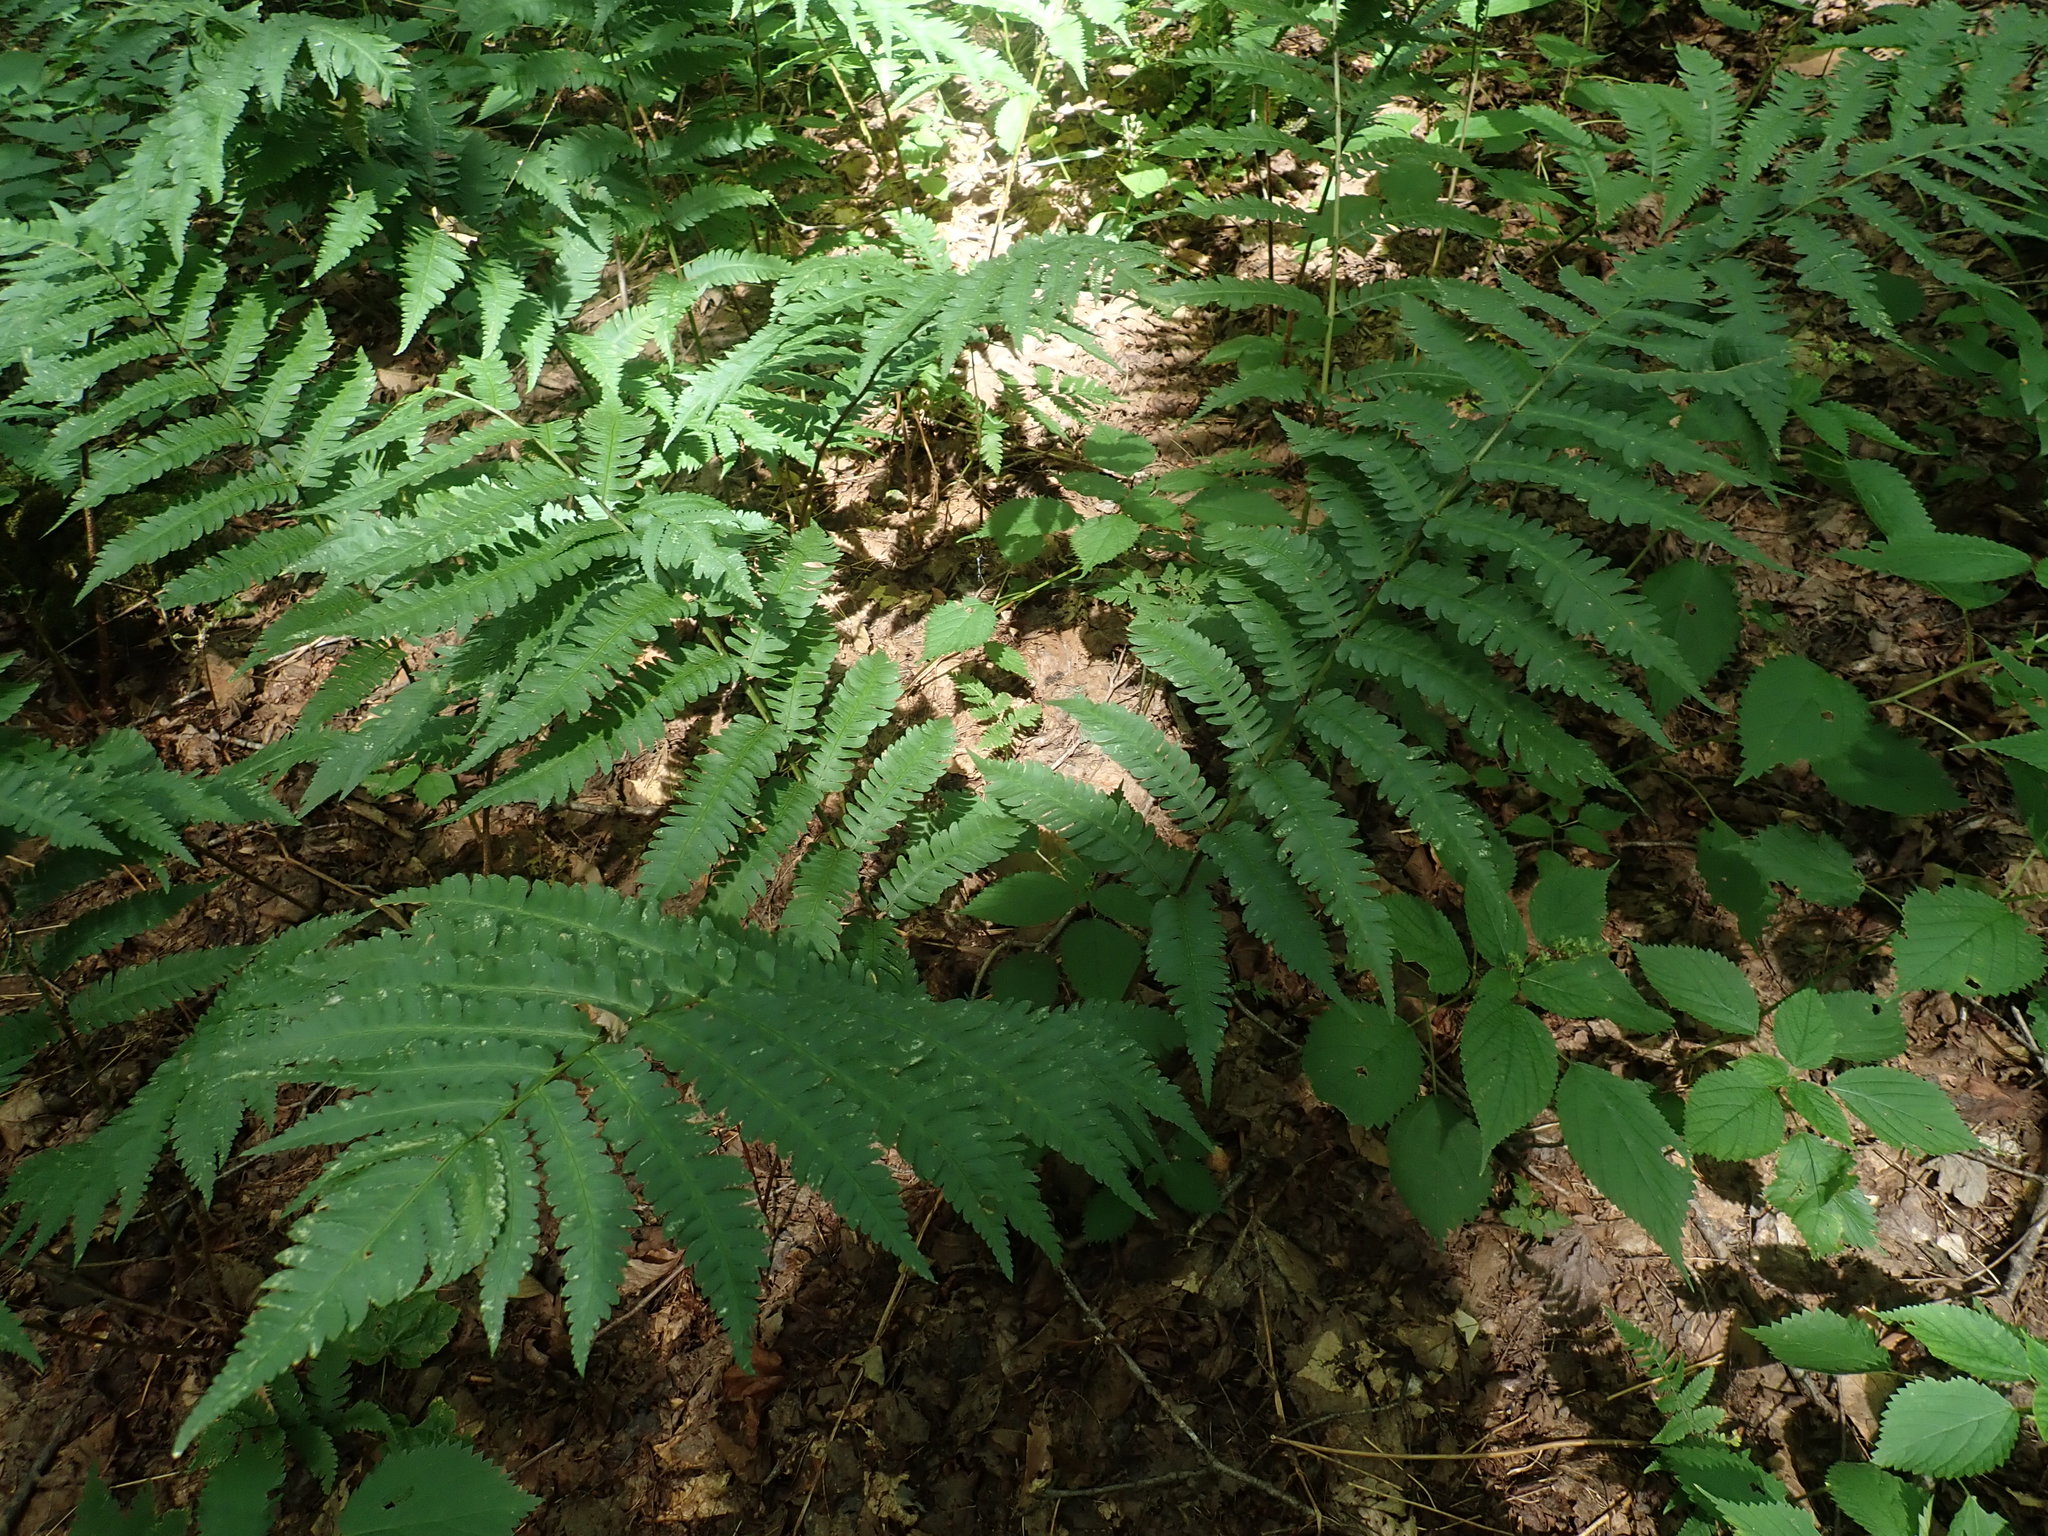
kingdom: Plantae
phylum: Tracheophyta
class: Polypodiopsida
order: Polypodiales
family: Dryopteridaceae
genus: Dryopteris
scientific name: Dryopteris goldieana
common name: Goldie's fern
